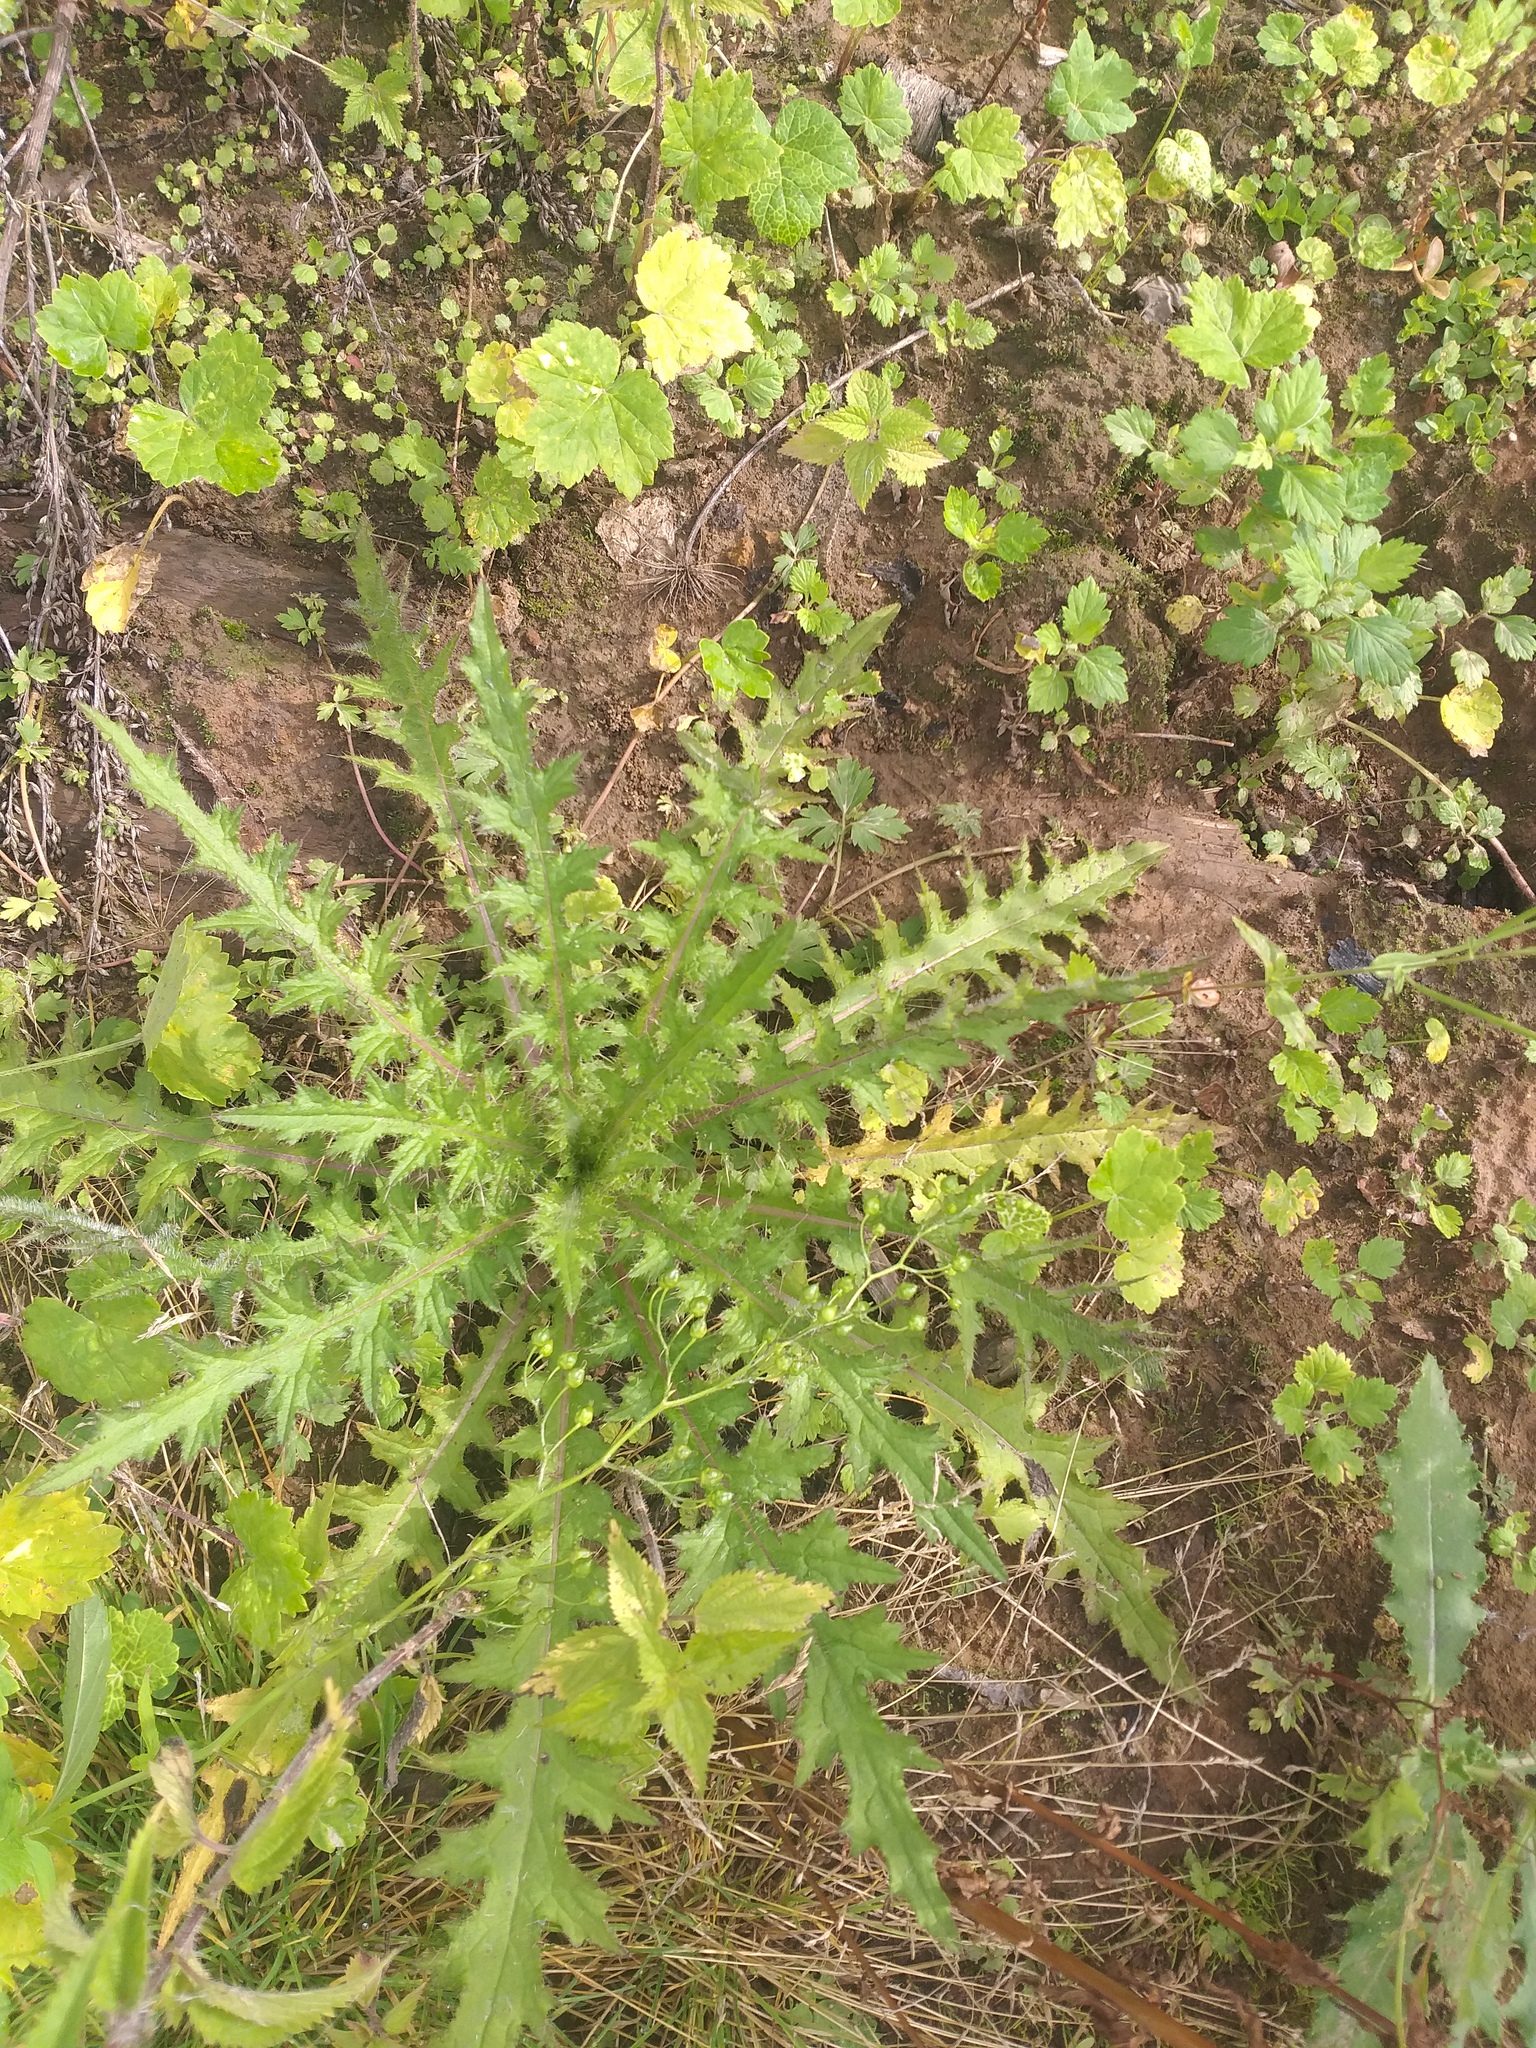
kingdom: Plantae
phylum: Tracheophyta
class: Magnoliopsida
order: Asterales
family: Asteraceae
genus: Cirsium
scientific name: Cirsium palustre
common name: Marsh thistle
